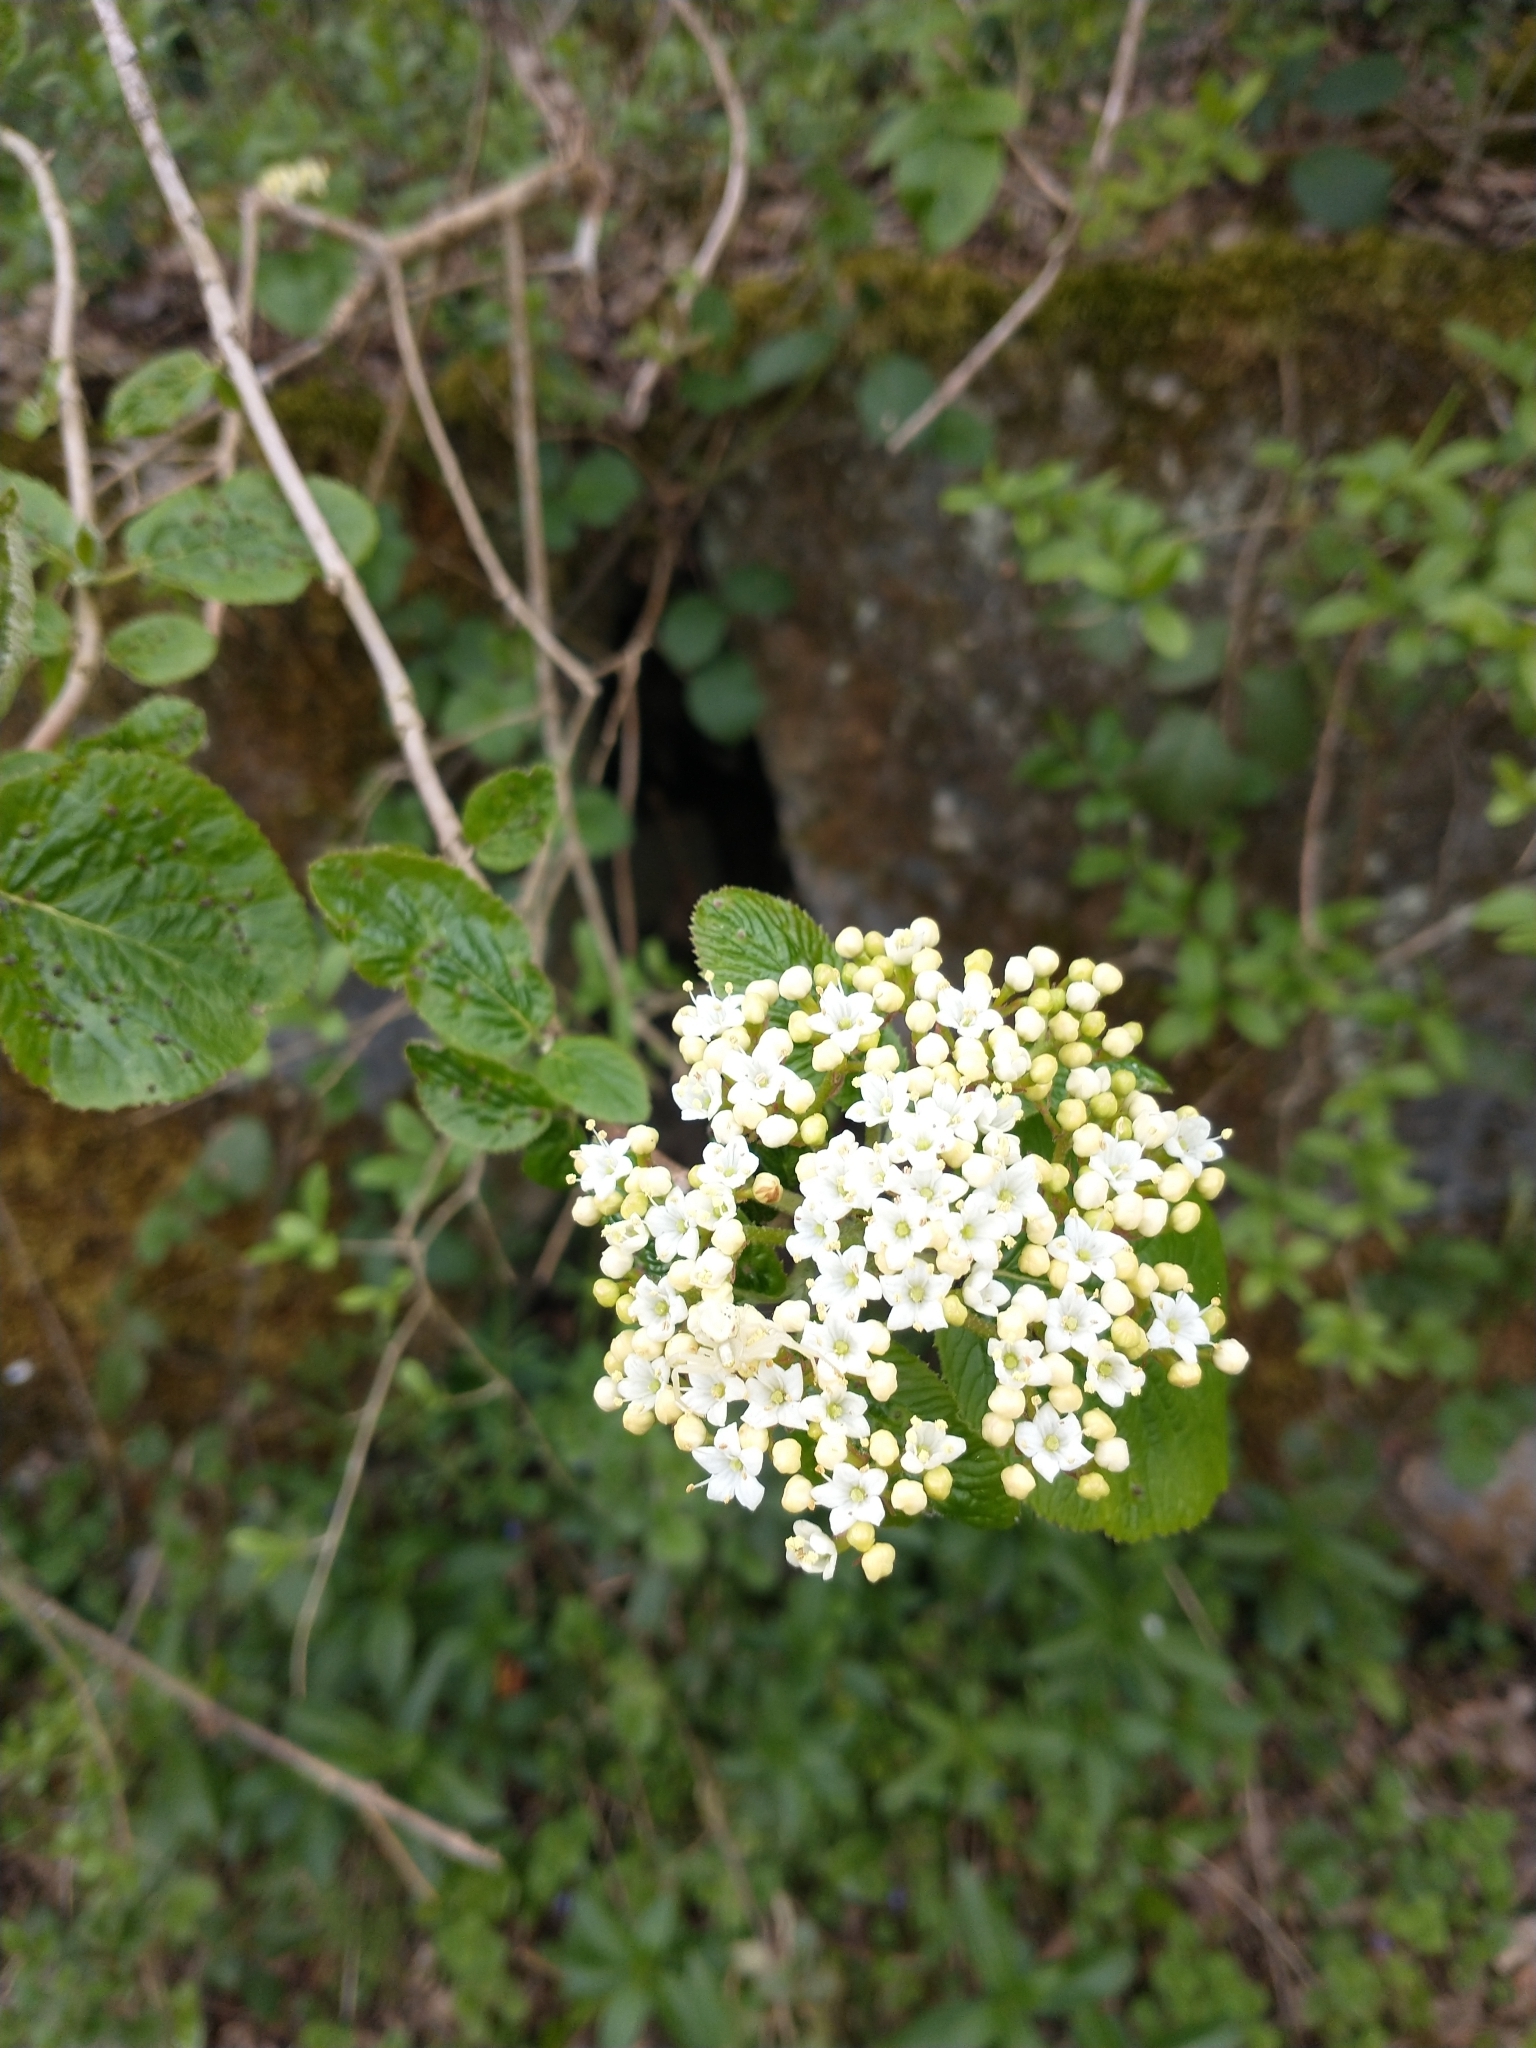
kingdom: Plantae
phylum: Tracheophyta
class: Magnoliopsida
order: Dipsacales
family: Viburnaceae
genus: Viburnum
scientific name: Viburnum lantana
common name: Wayfaring tree
